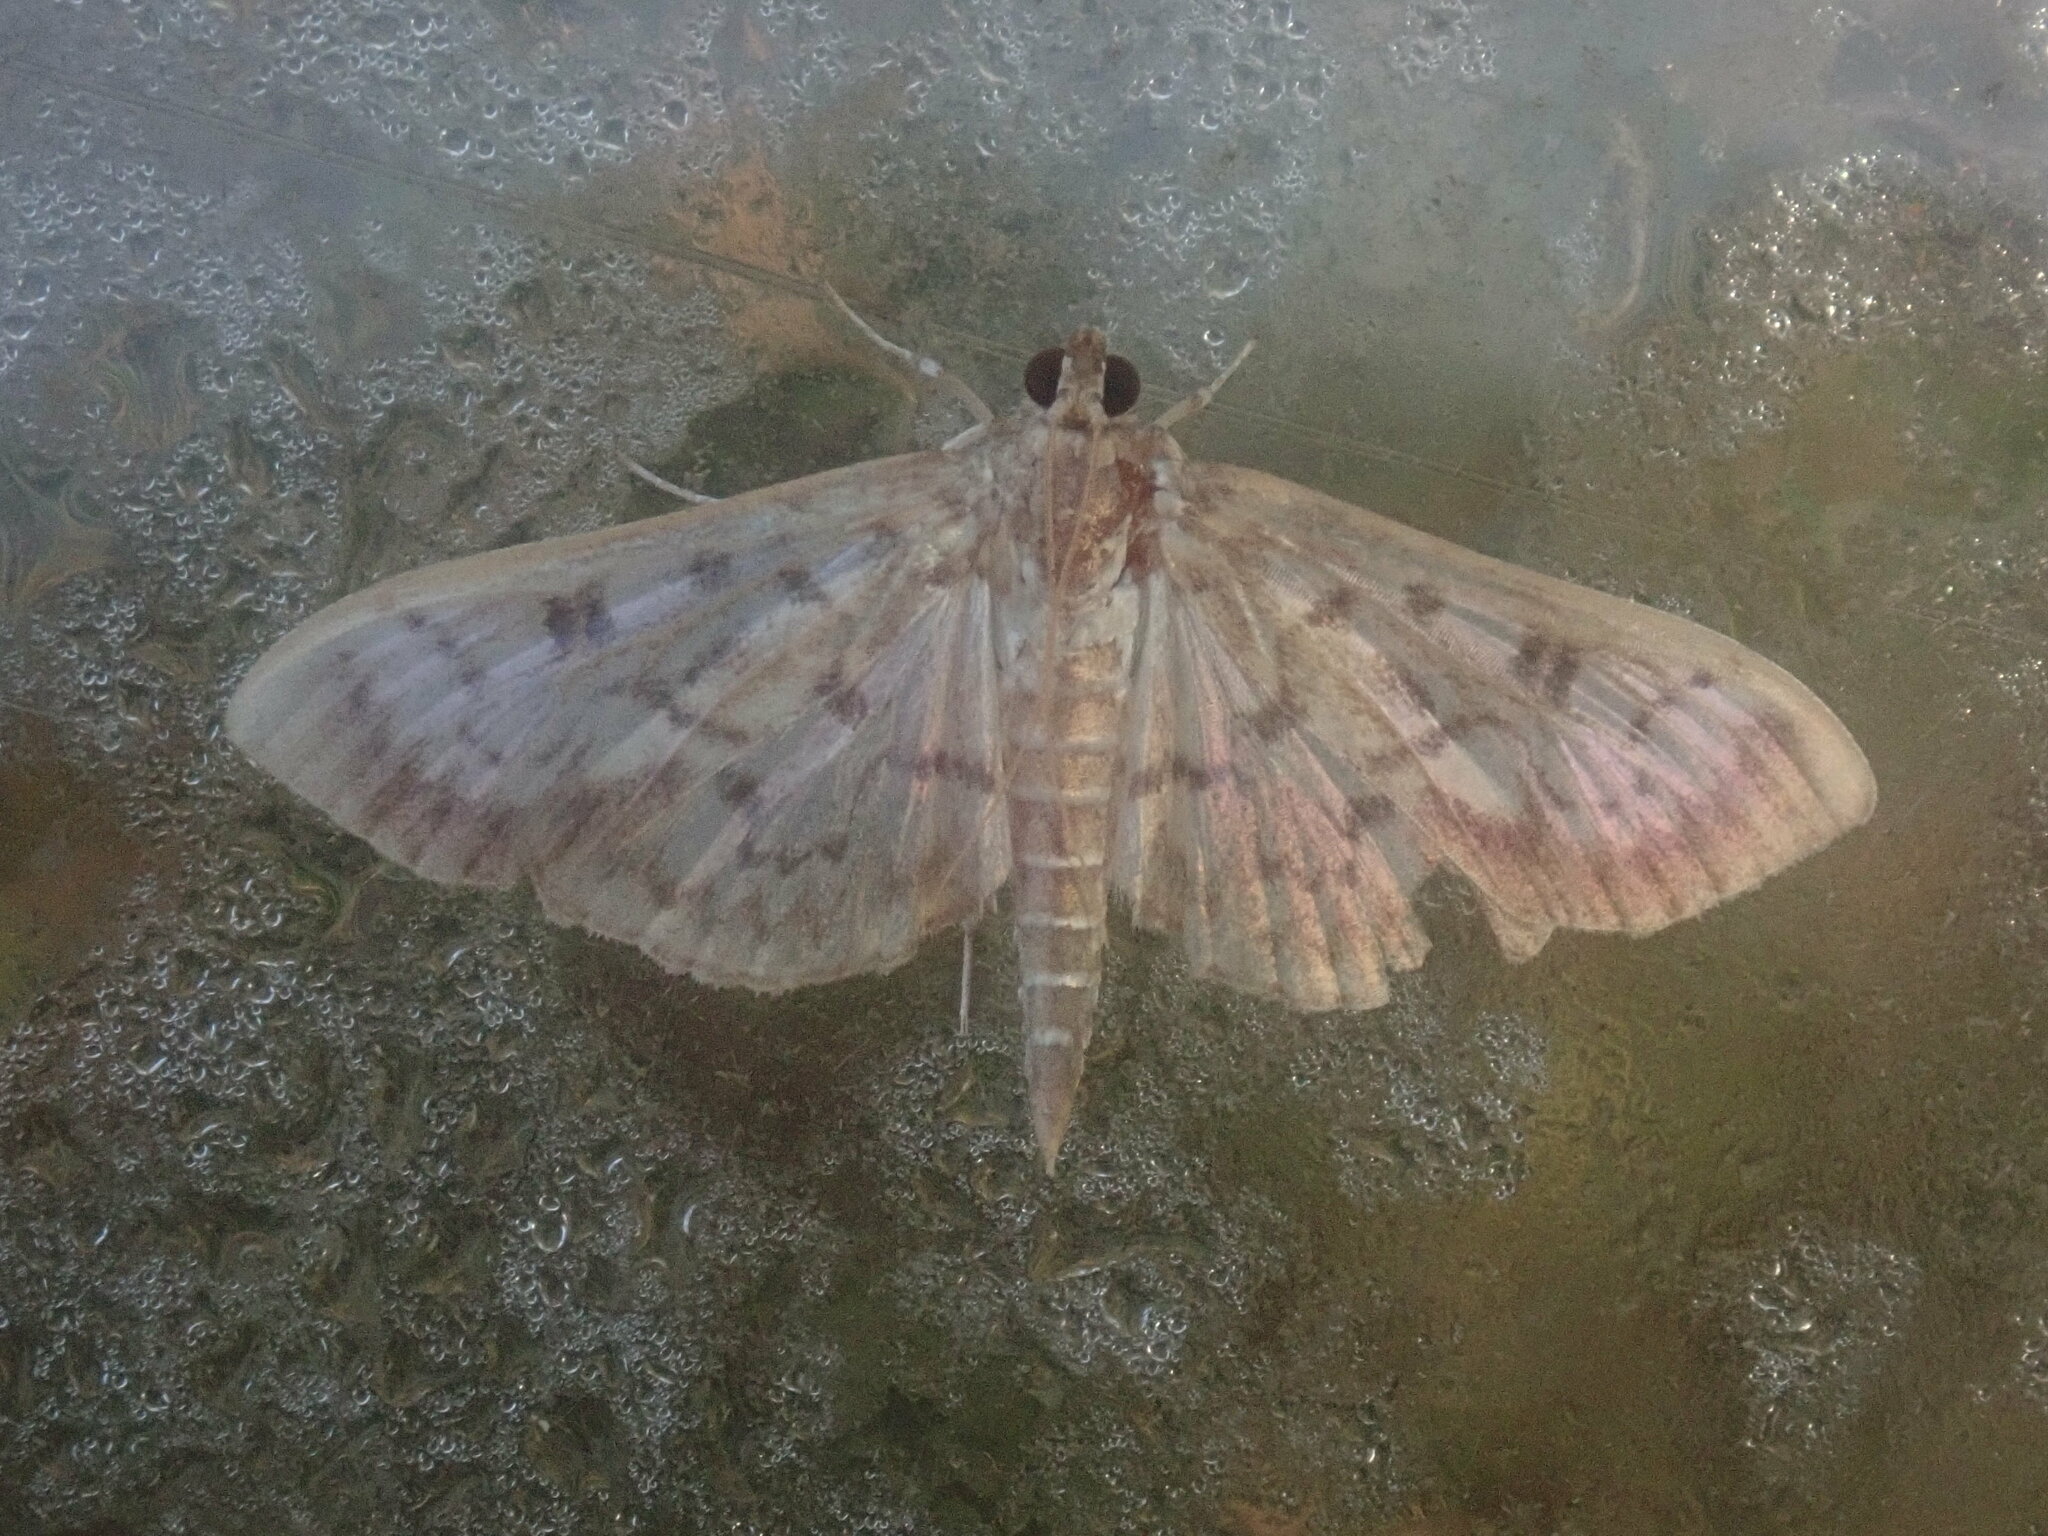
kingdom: Animalia
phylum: Arthropoda
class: Insecta
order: Lepidoptera
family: Crambidae
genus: Herpetogramma
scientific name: Herpetogramma thestealis
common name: Zigzag herpetogramma moth
